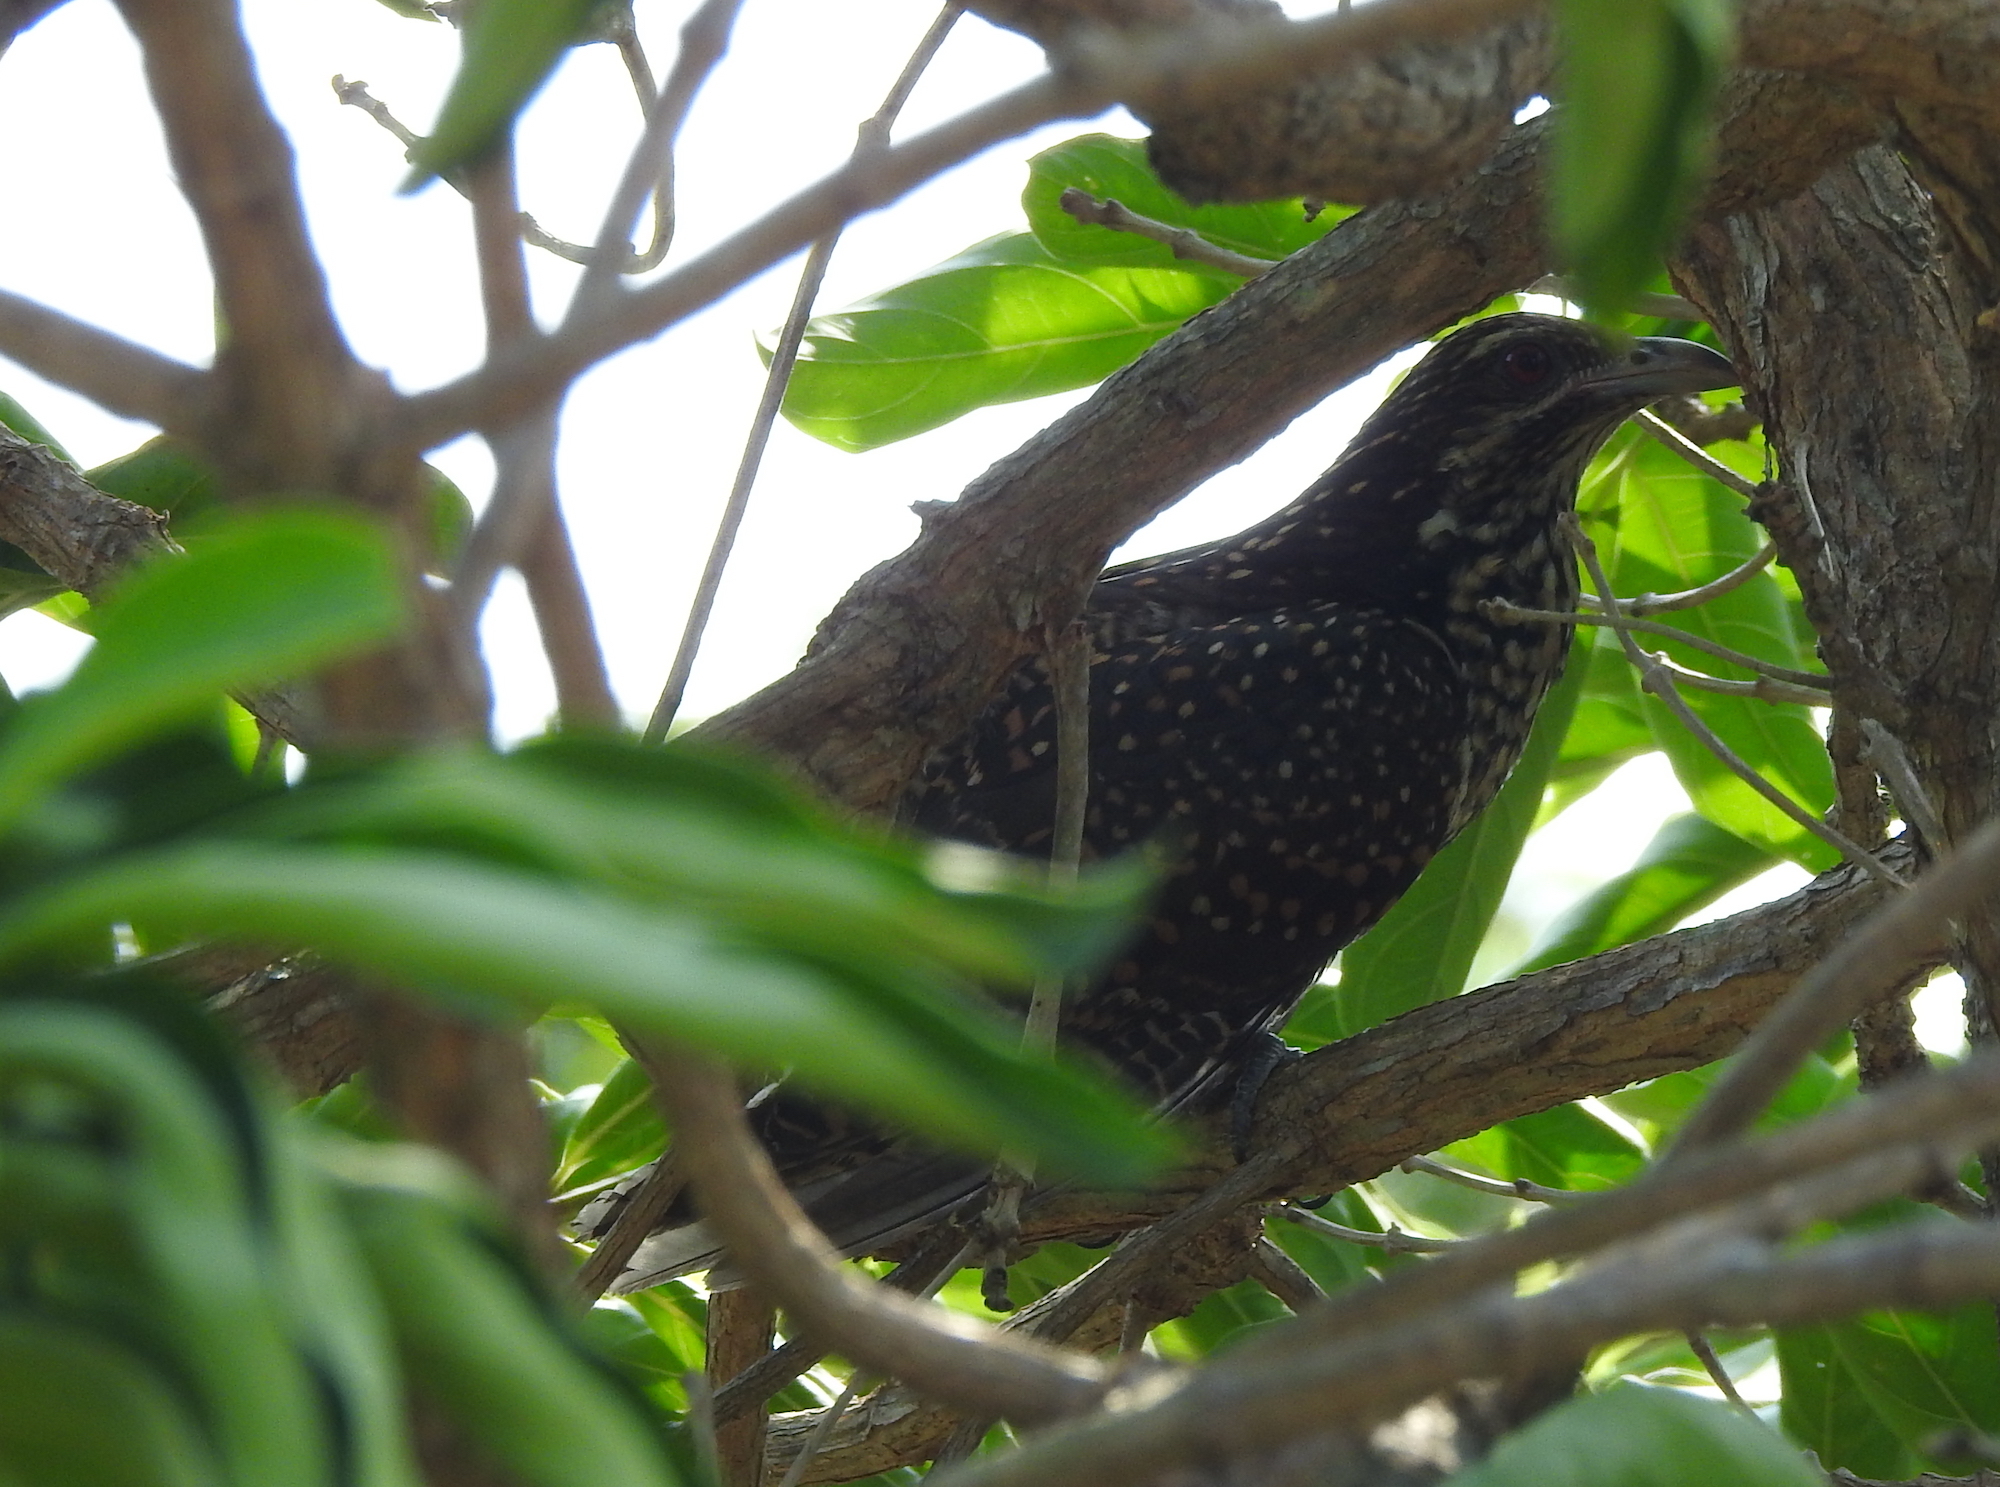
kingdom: Animalia
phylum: Chordata
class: Aves
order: Cuculiformes
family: Cuculidae
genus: Eudynamys
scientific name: Eudynamys scolopaceus
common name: Asian koel
